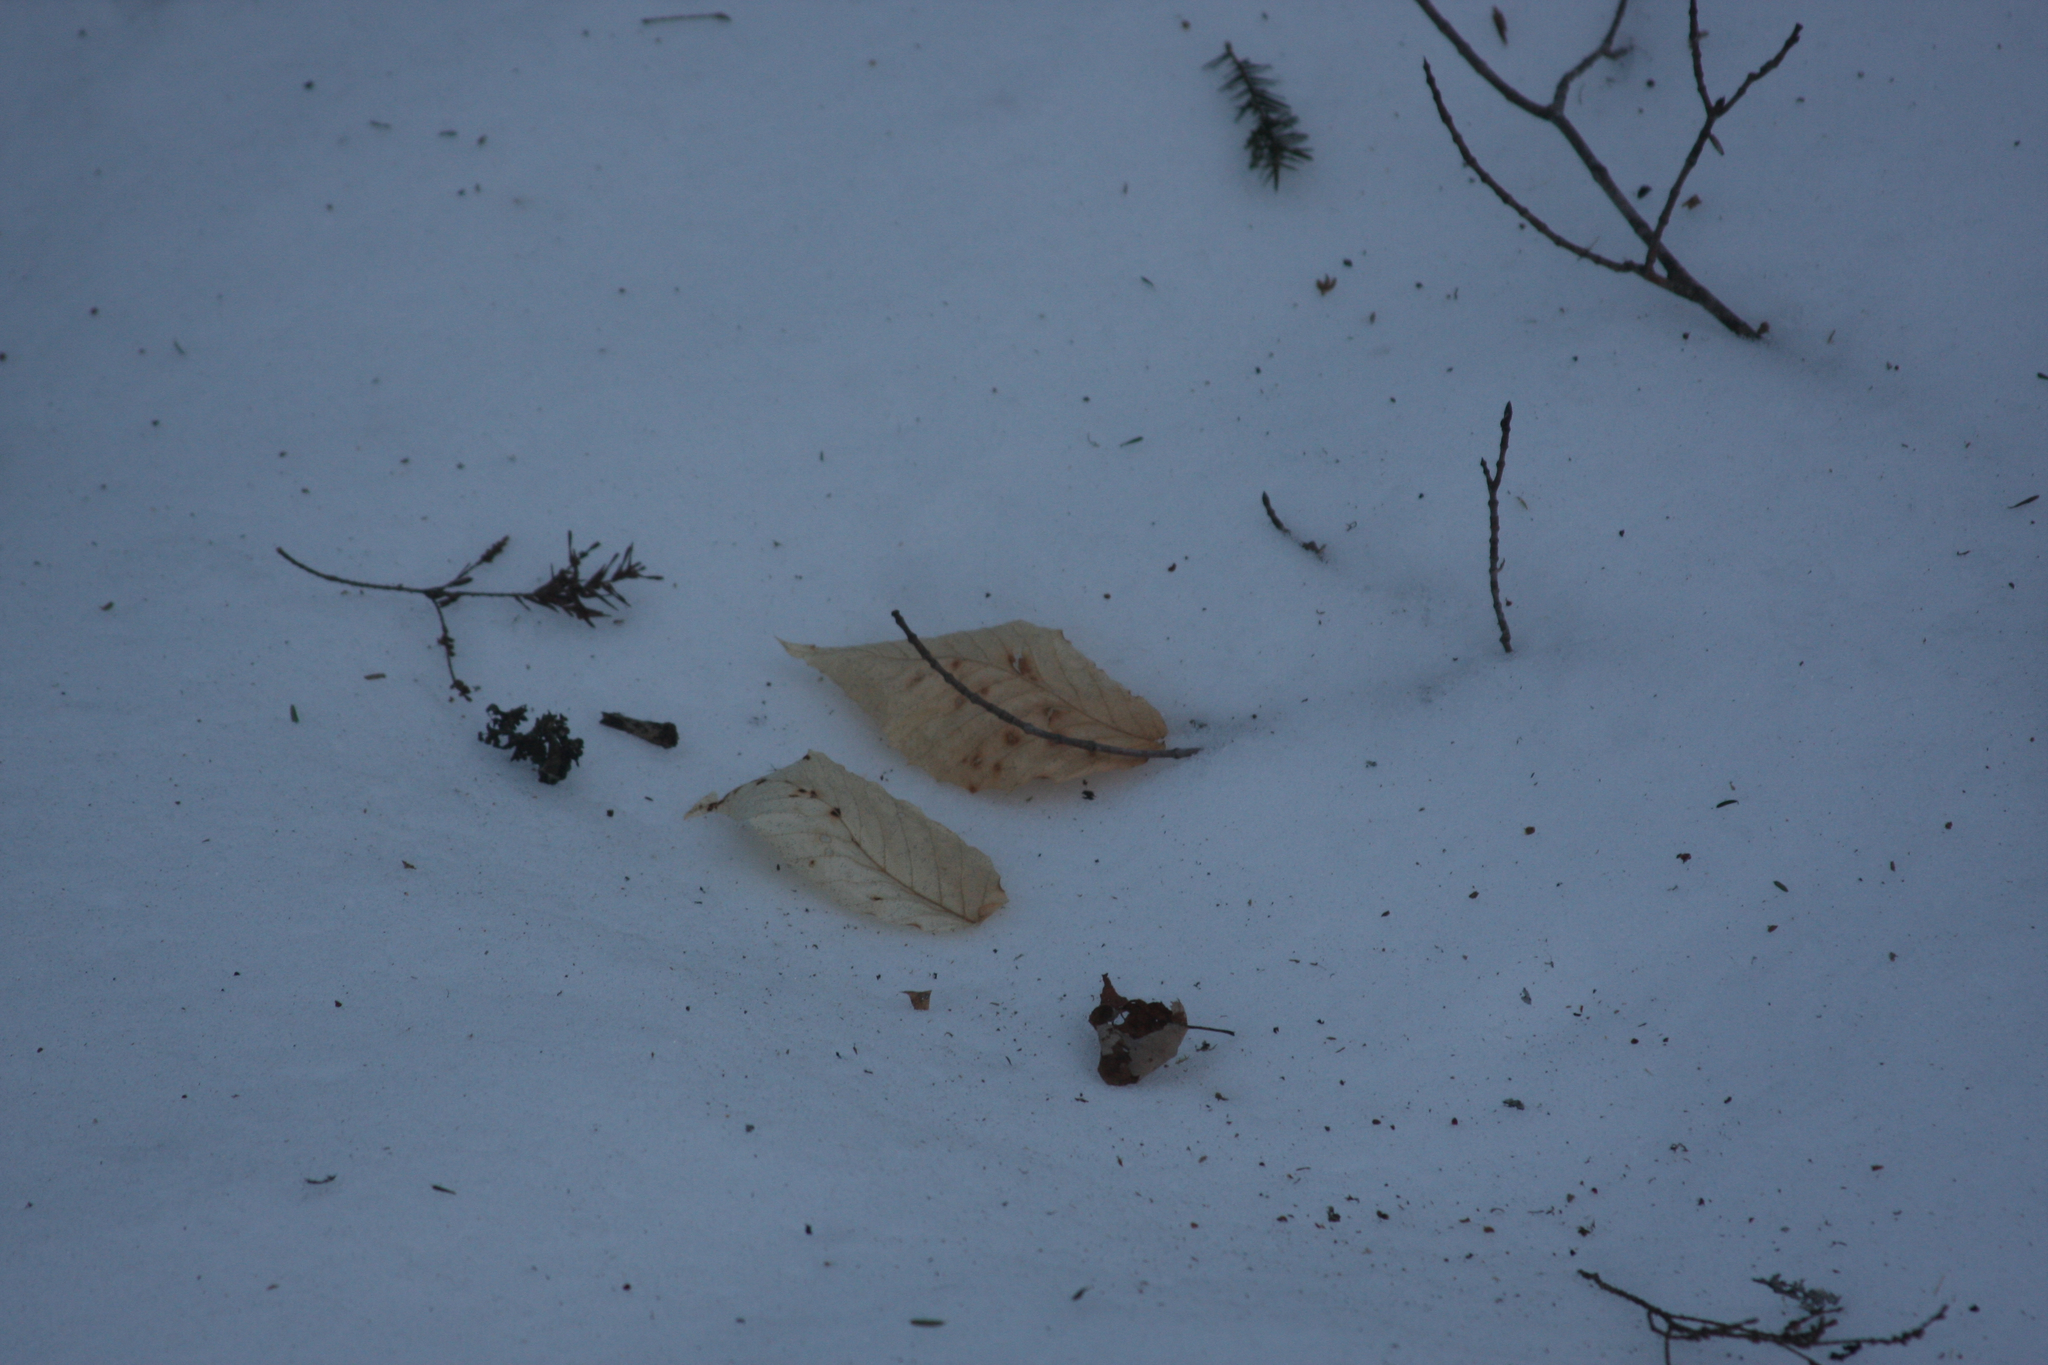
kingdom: Plantae
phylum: Tracheophyta
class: Magnoliopsida
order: Fagales
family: Fagaceae
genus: Fagus
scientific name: Fagus grandifolia
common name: American beech
